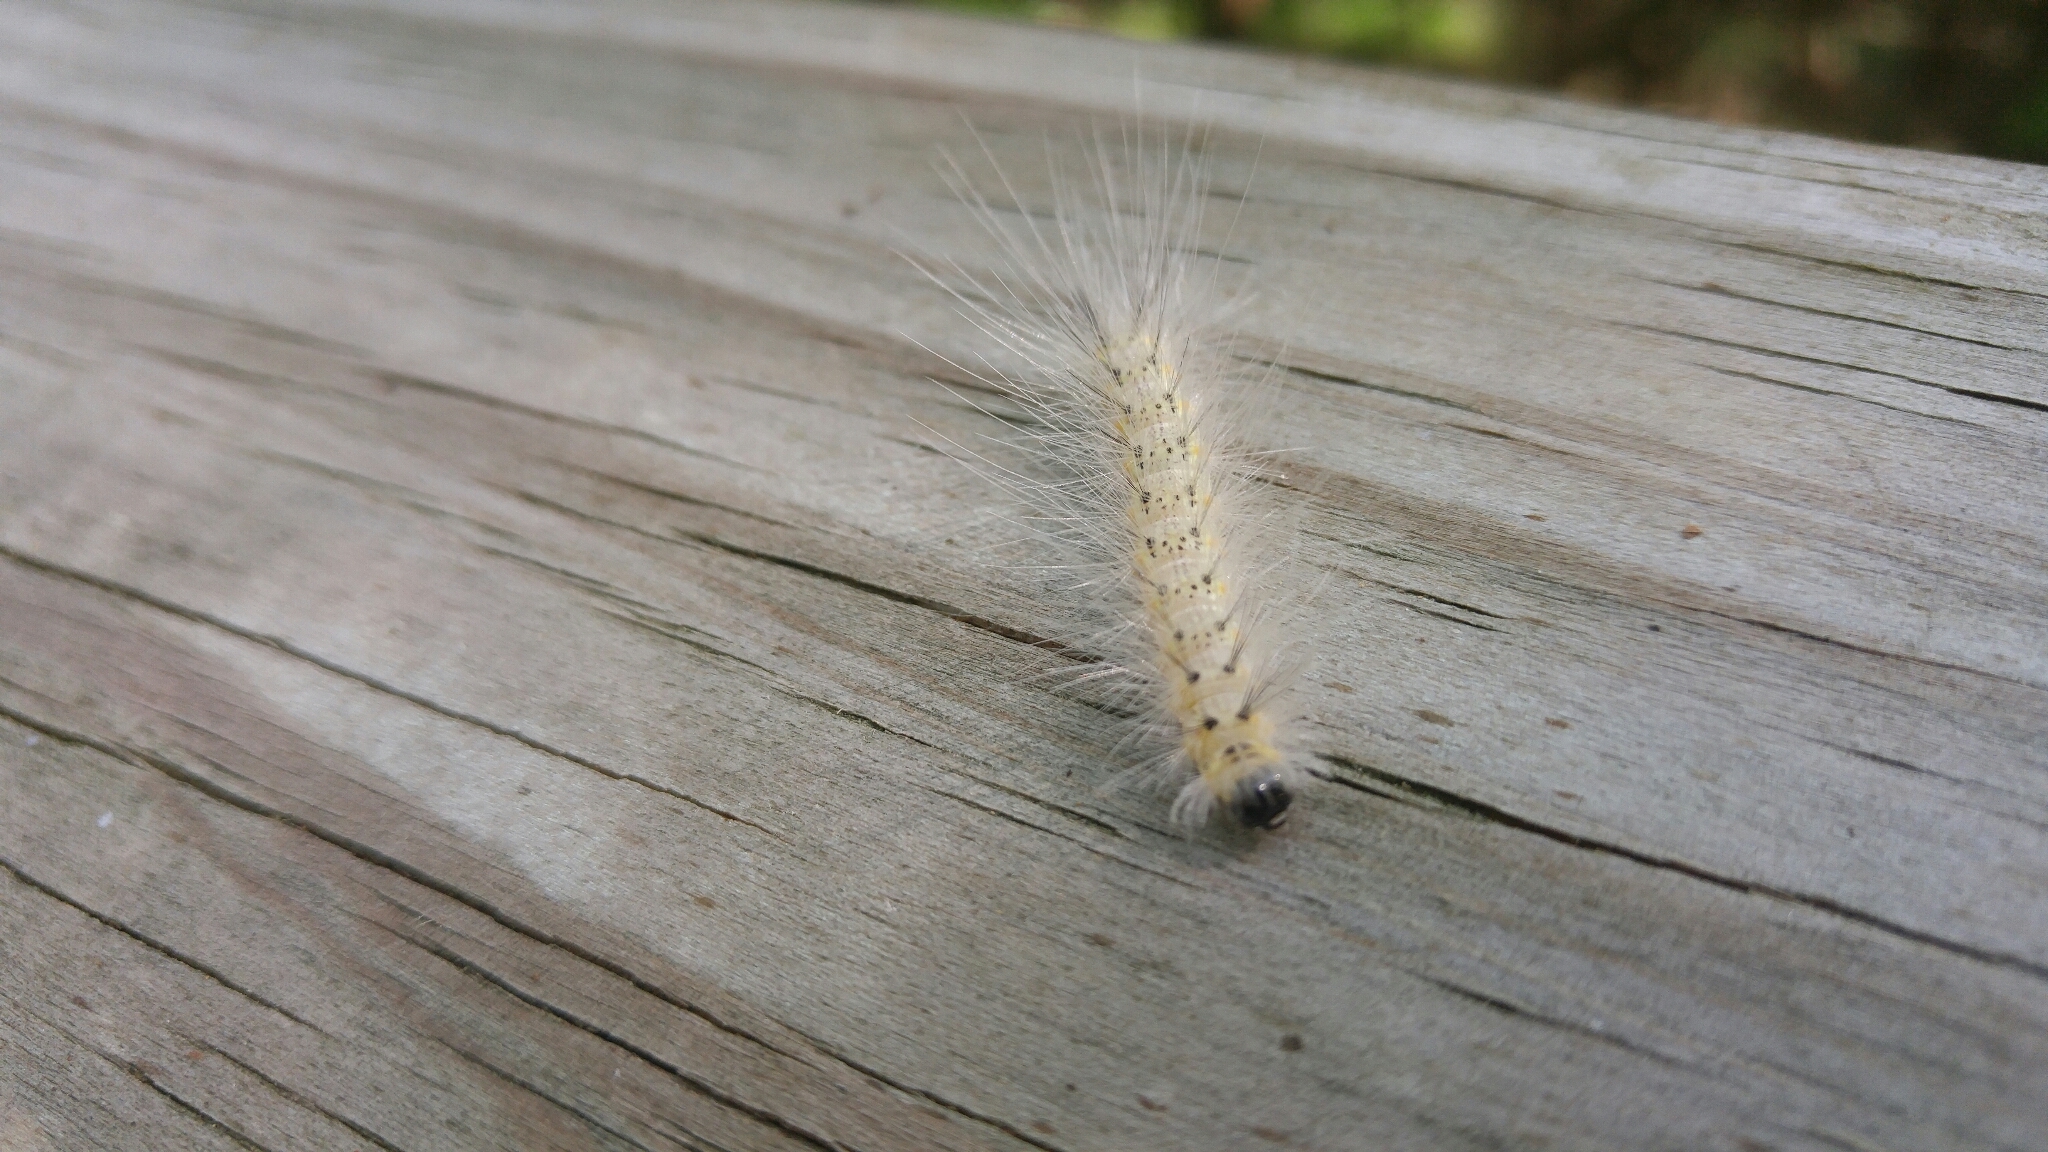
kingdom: Animalia
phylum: Arthropoda
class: Insecta
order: Lepidoptera
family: Erebidae
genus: Hyphantria
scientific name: Hyphantria cunea
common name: American white moth
